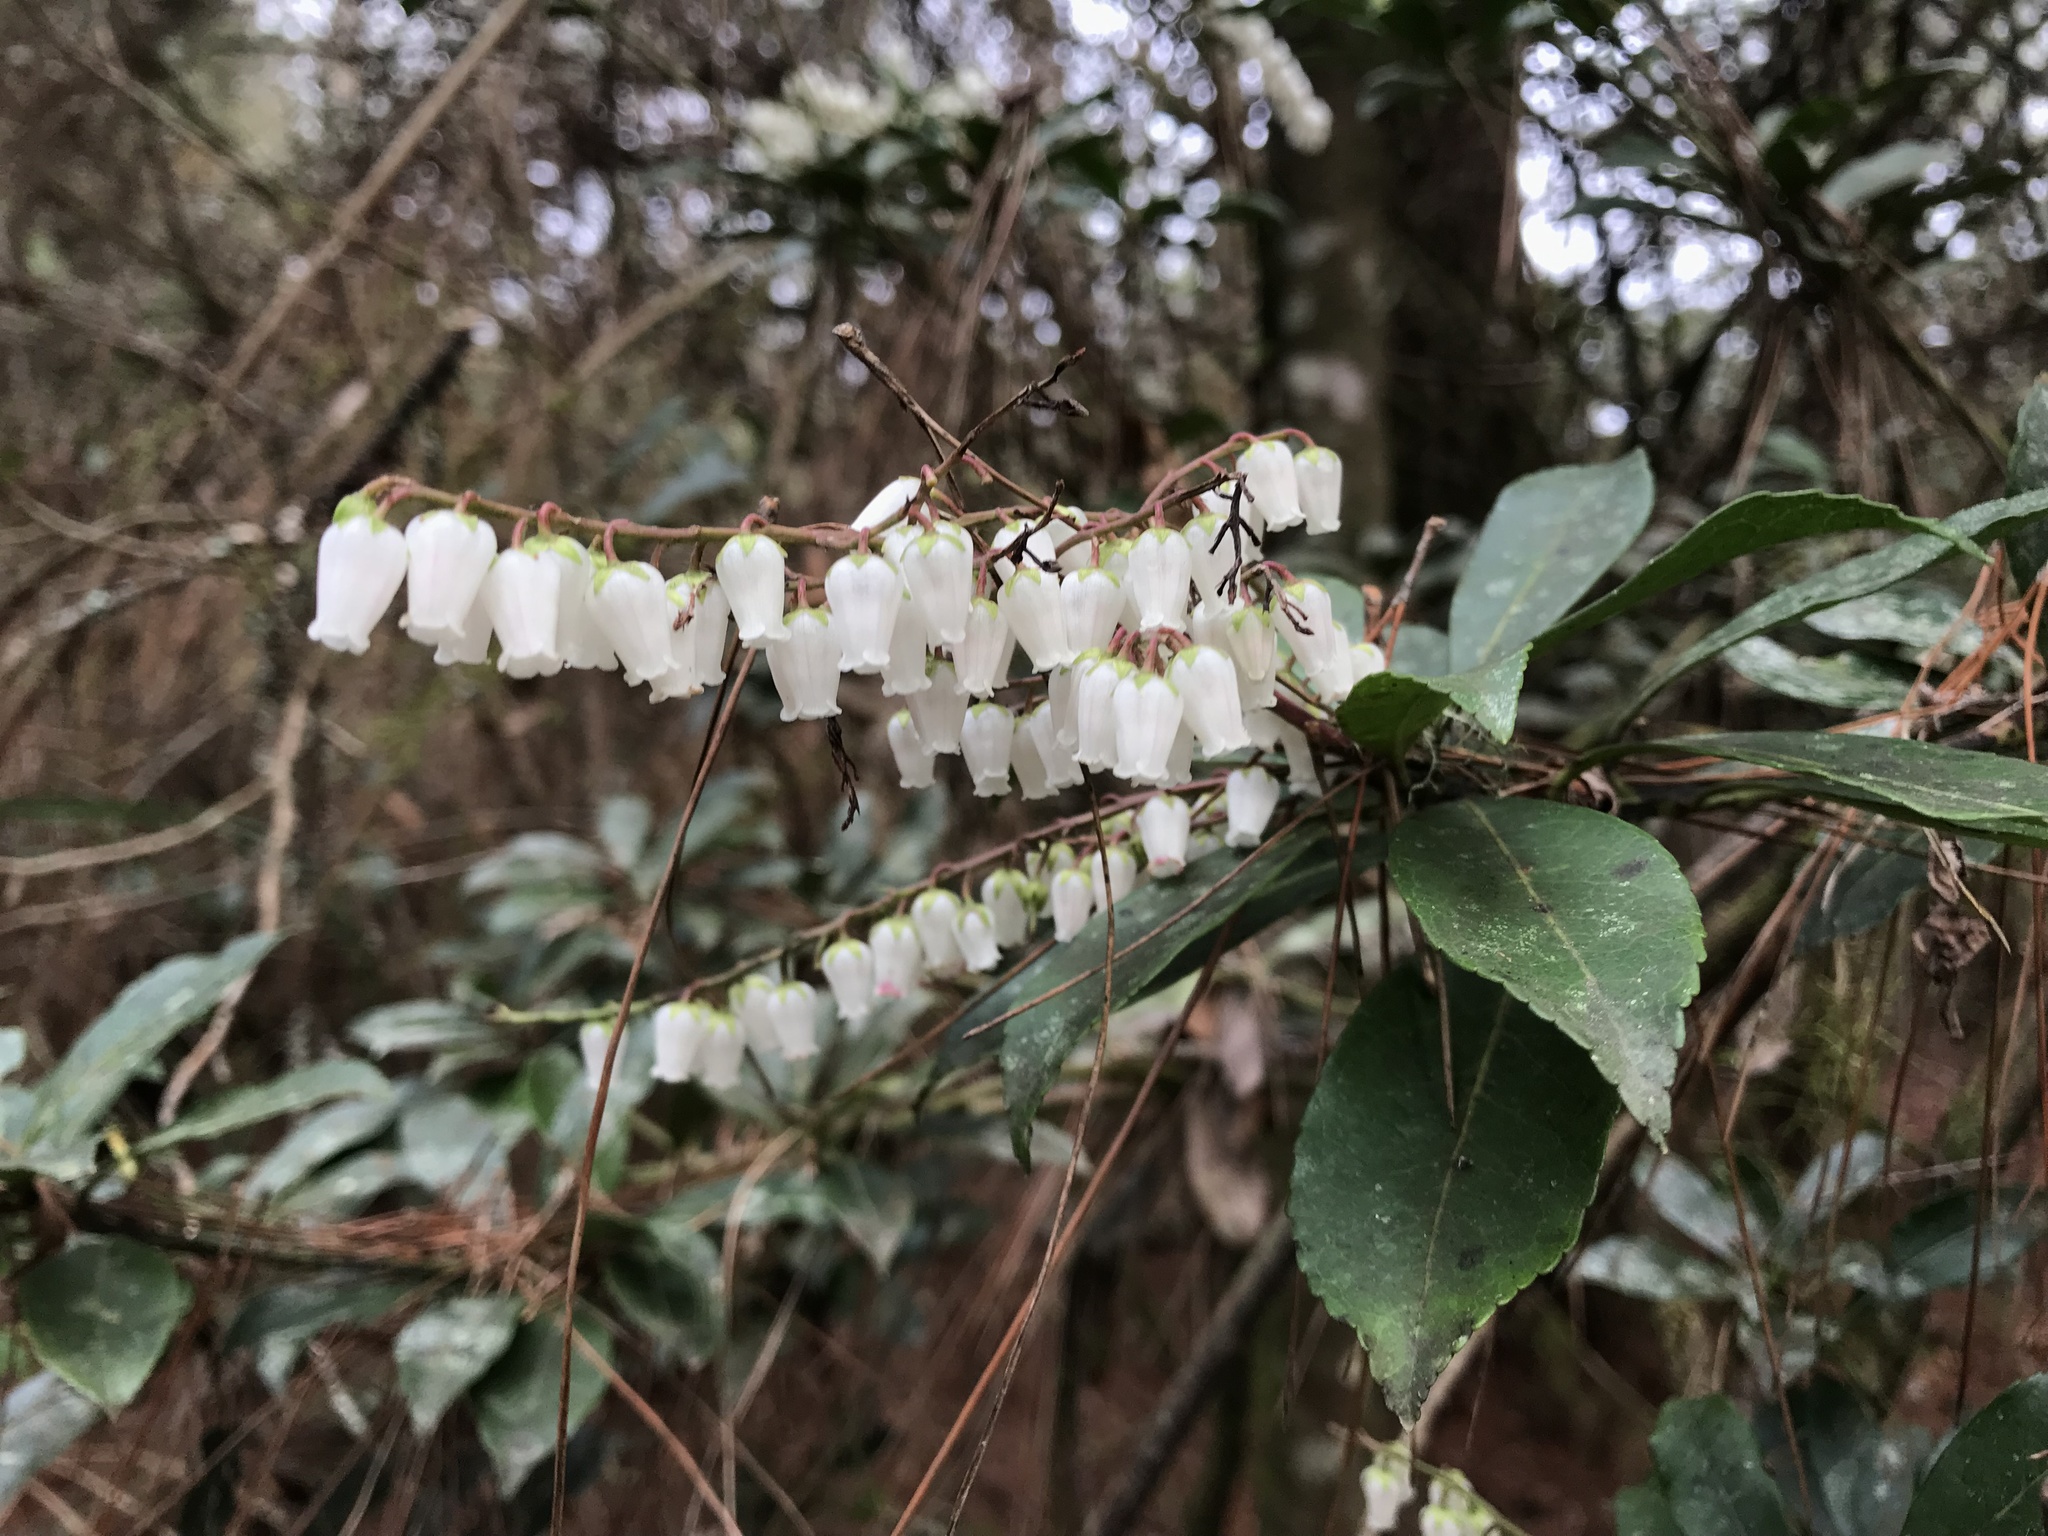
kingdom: Plantae
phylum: Tracheophyta
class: Magnoliopsida
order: Ericales
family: Ericaceae
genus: Pieris
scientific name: Pieris japonica
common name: Japanese pieris
